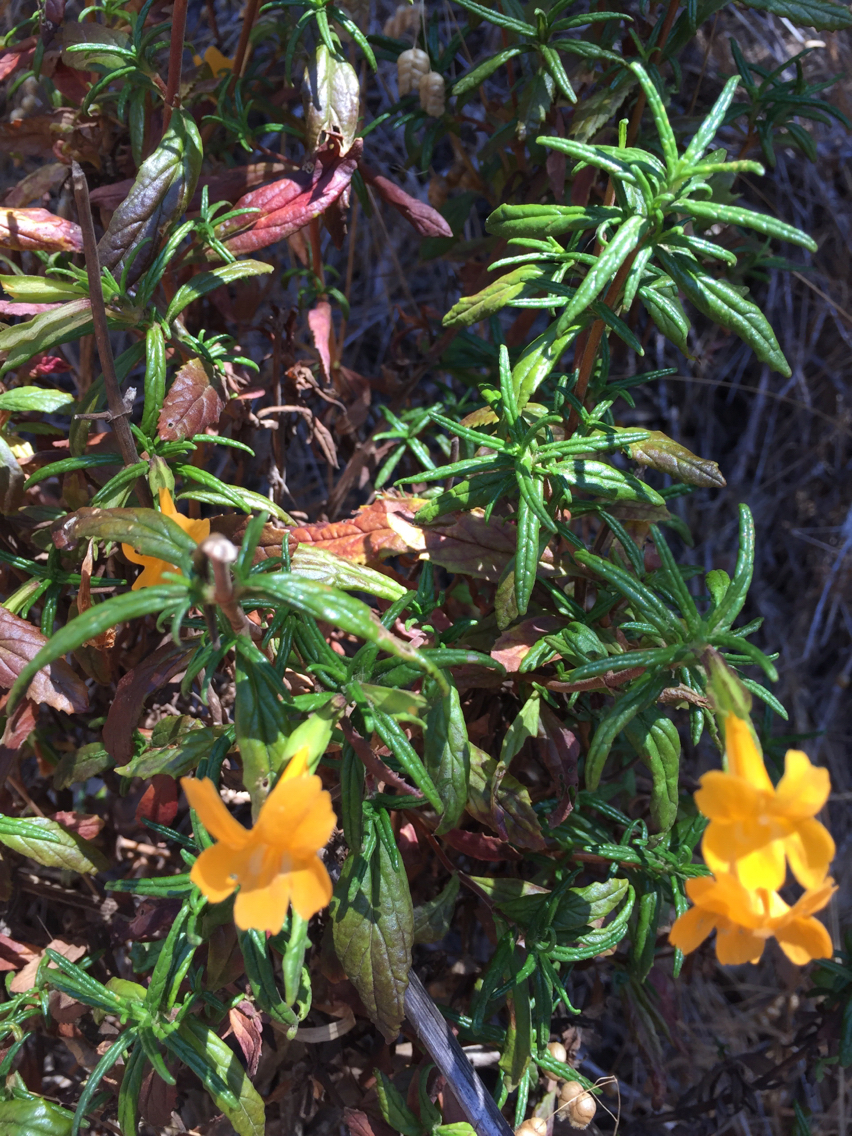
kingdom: Plantae
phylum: Tracheophyta
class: Magnoliopsida
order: Lamiales
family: Phrymaceae
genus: Diplacus
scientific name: Diplacus aurantiacus
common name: Bush monkey-flower
